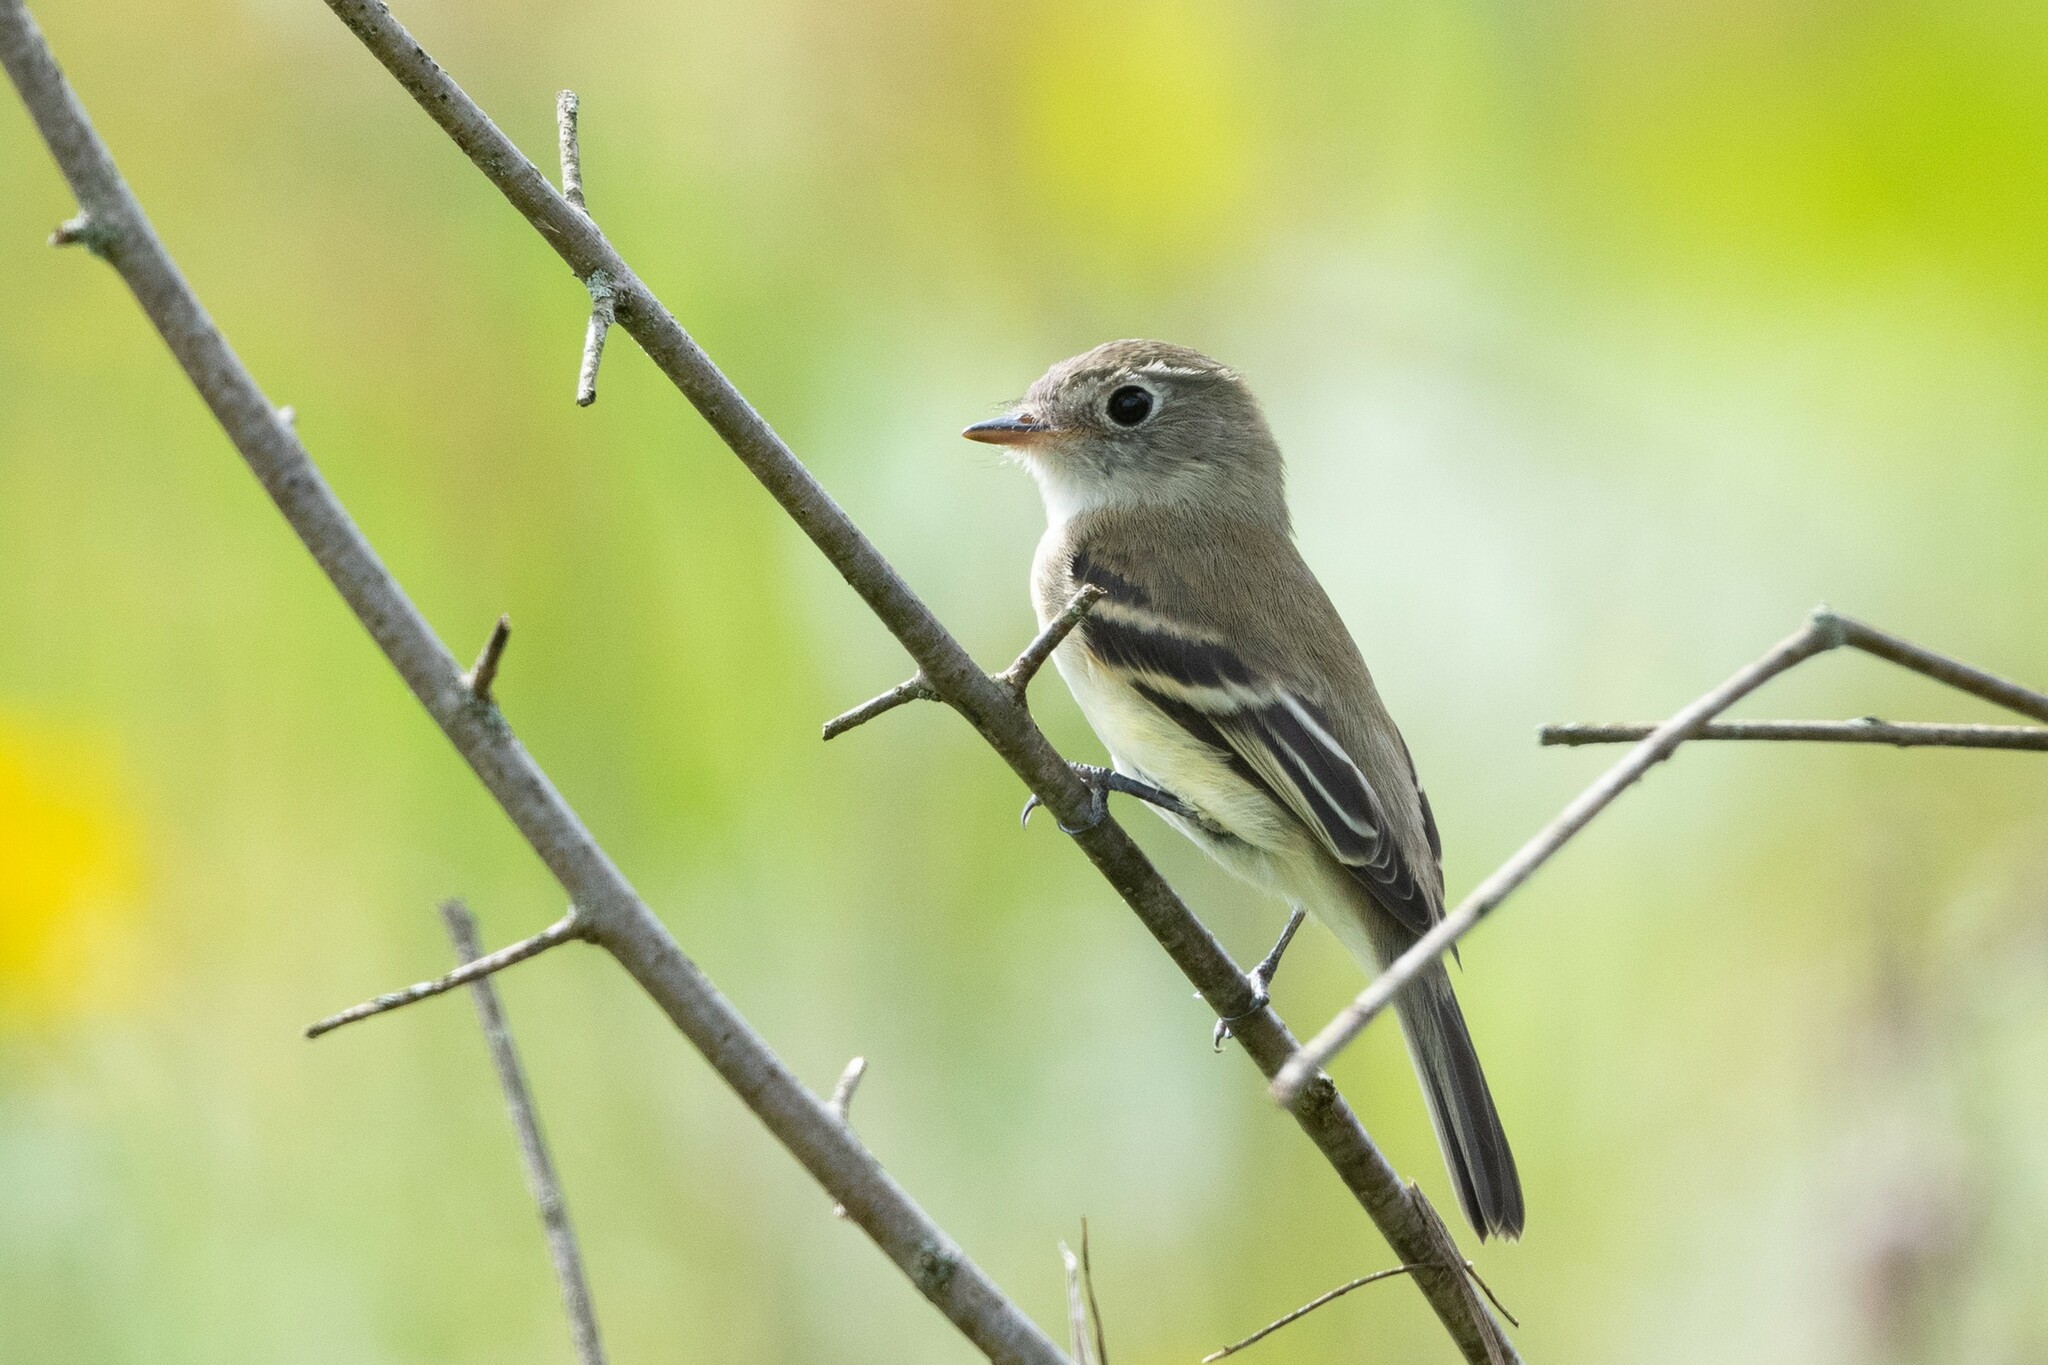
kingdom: Animalia
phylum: Chordata
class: Aves
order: Passeriformes
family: Tyrannidae
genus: Empidonax
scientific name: Empidonax minimus
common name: Least flycatcher
